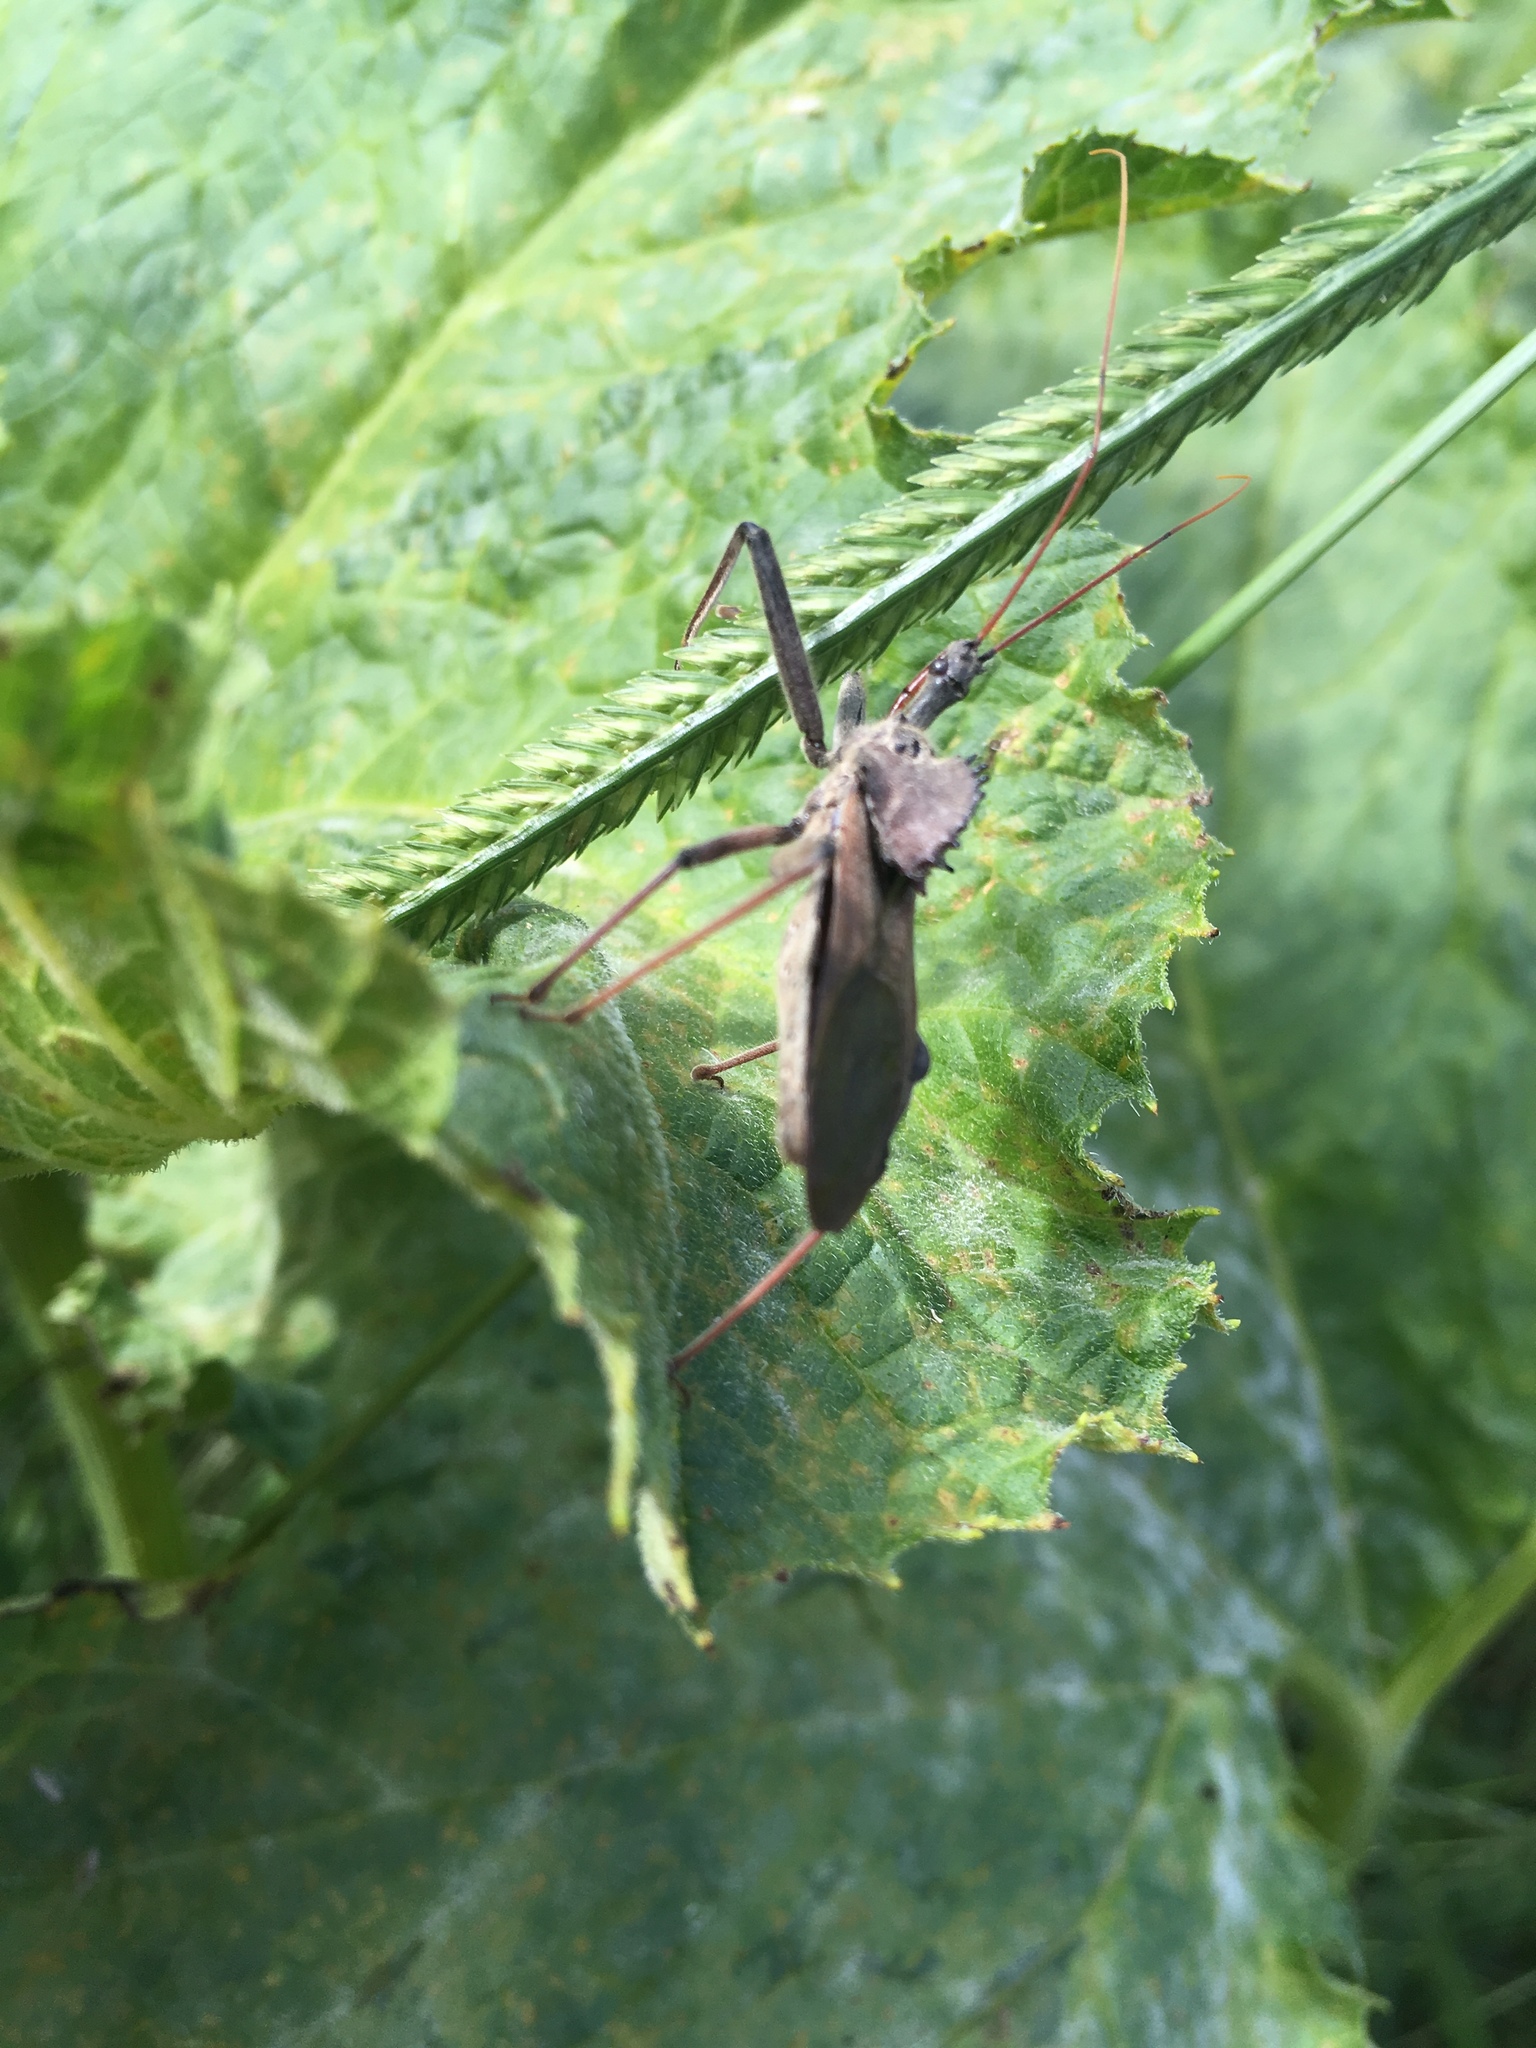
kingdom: Animalia
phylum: Arthropoda
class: Insecta
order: Hemiptera
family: Reduviidae
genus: Arilus
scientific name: Arilus cristatus
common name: North american wheel bug
